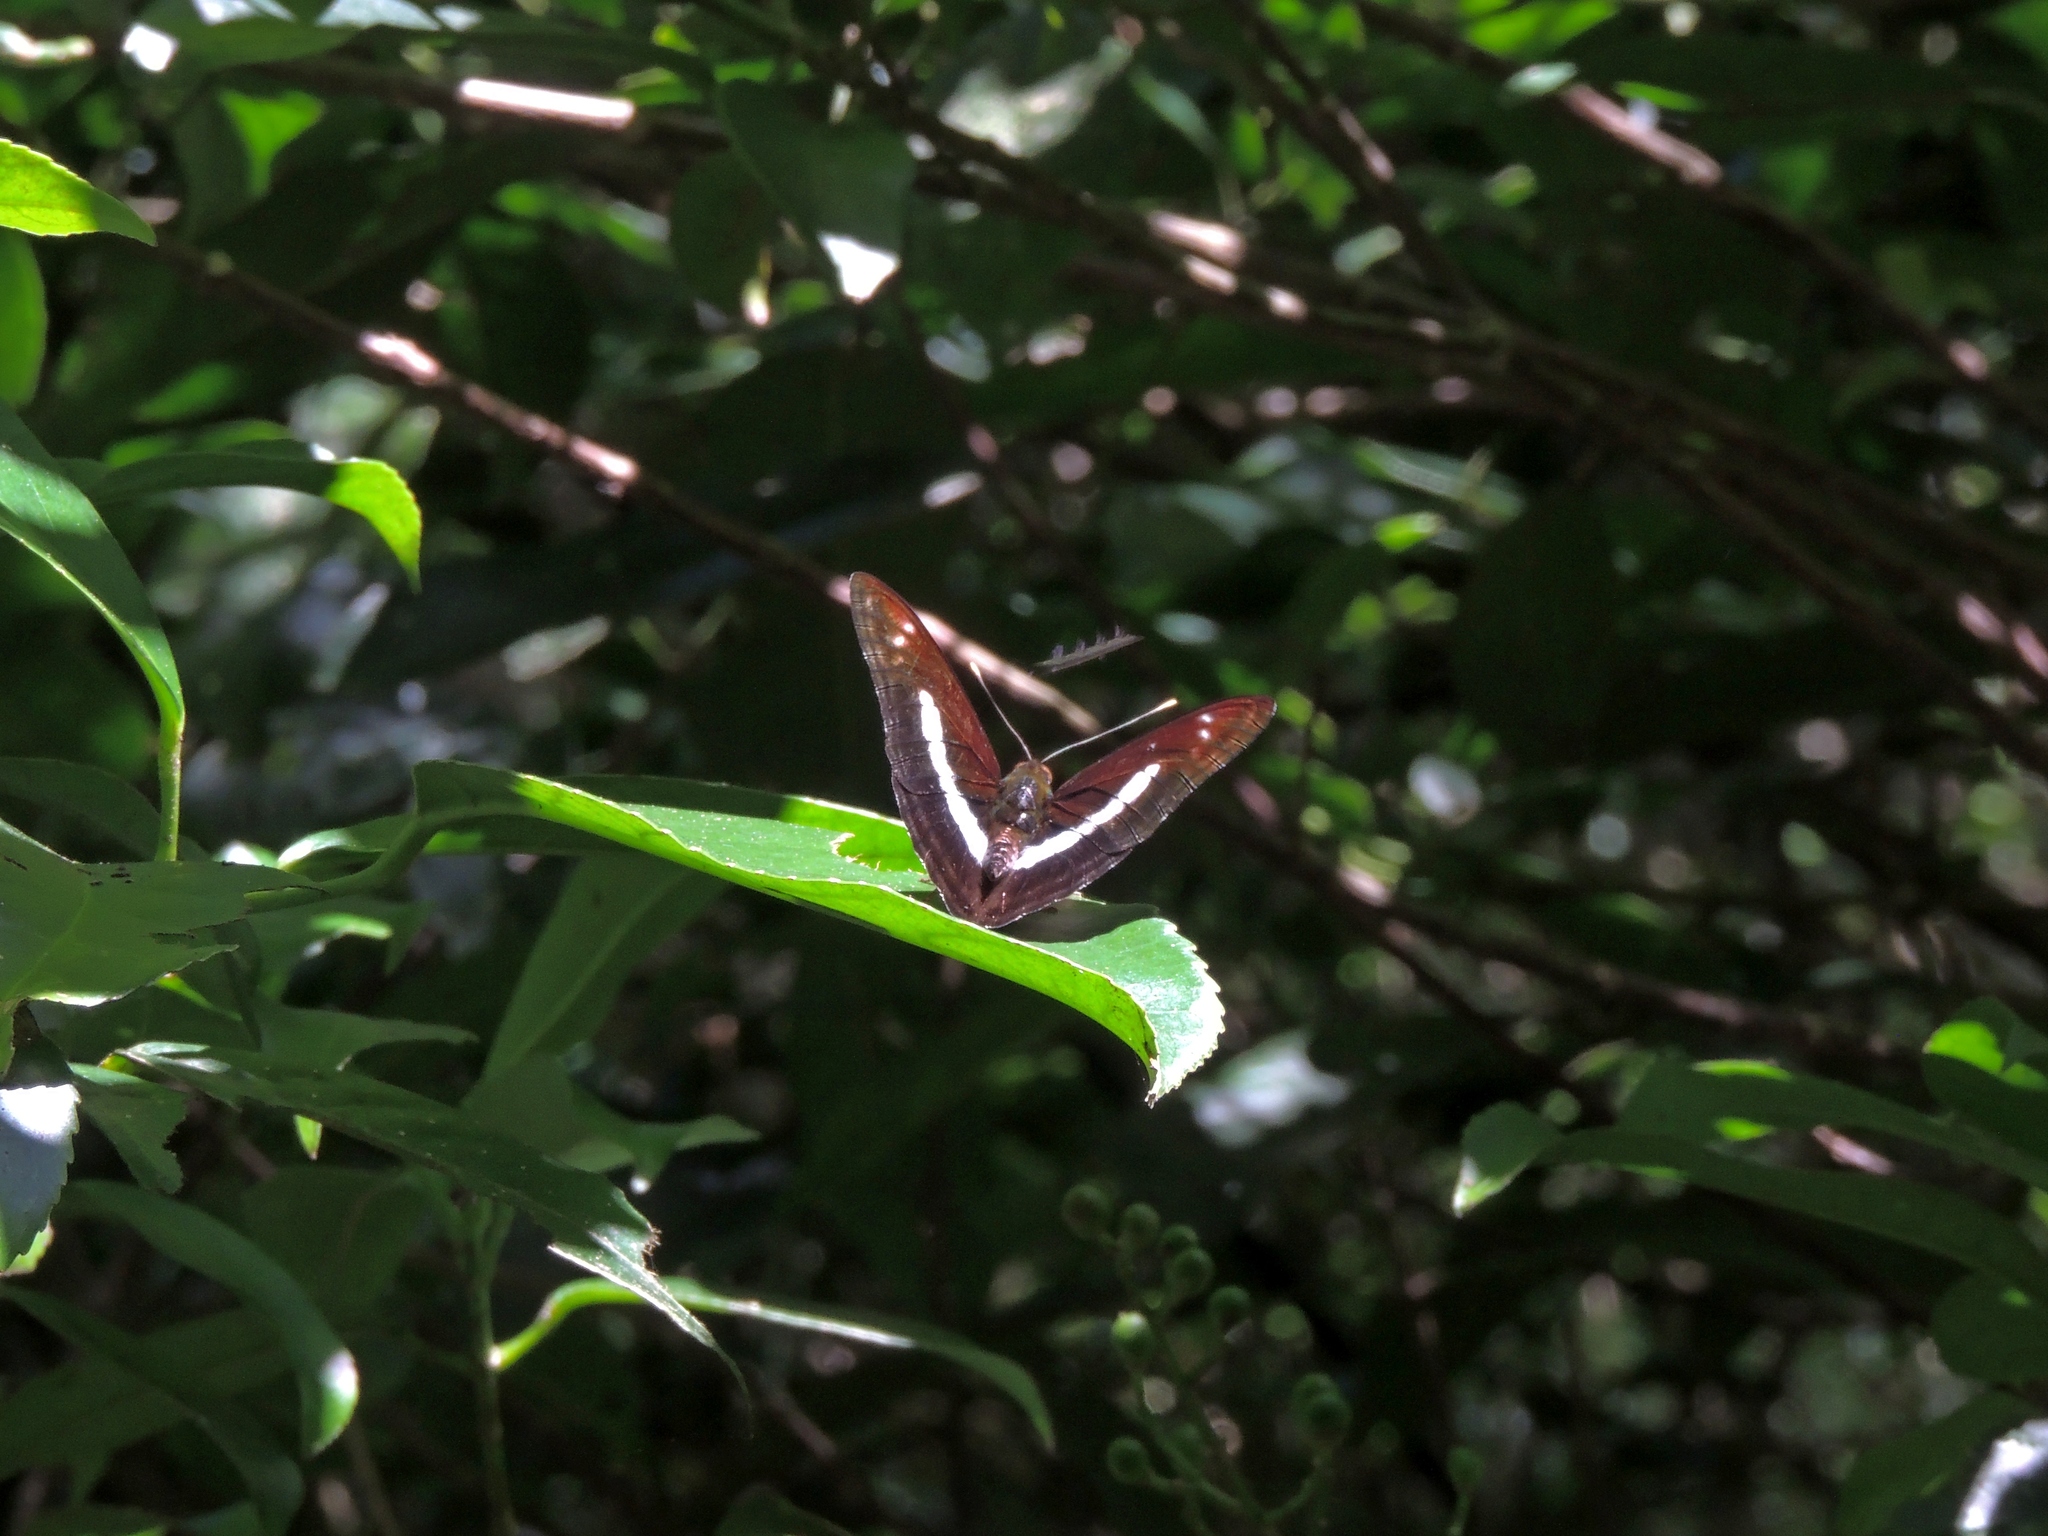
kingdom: Animalia
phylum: Arthropoda
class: Insecta
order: Lepidoptera
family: Nymphalidae
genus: Parathyma
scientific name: Parathyma selenophora
